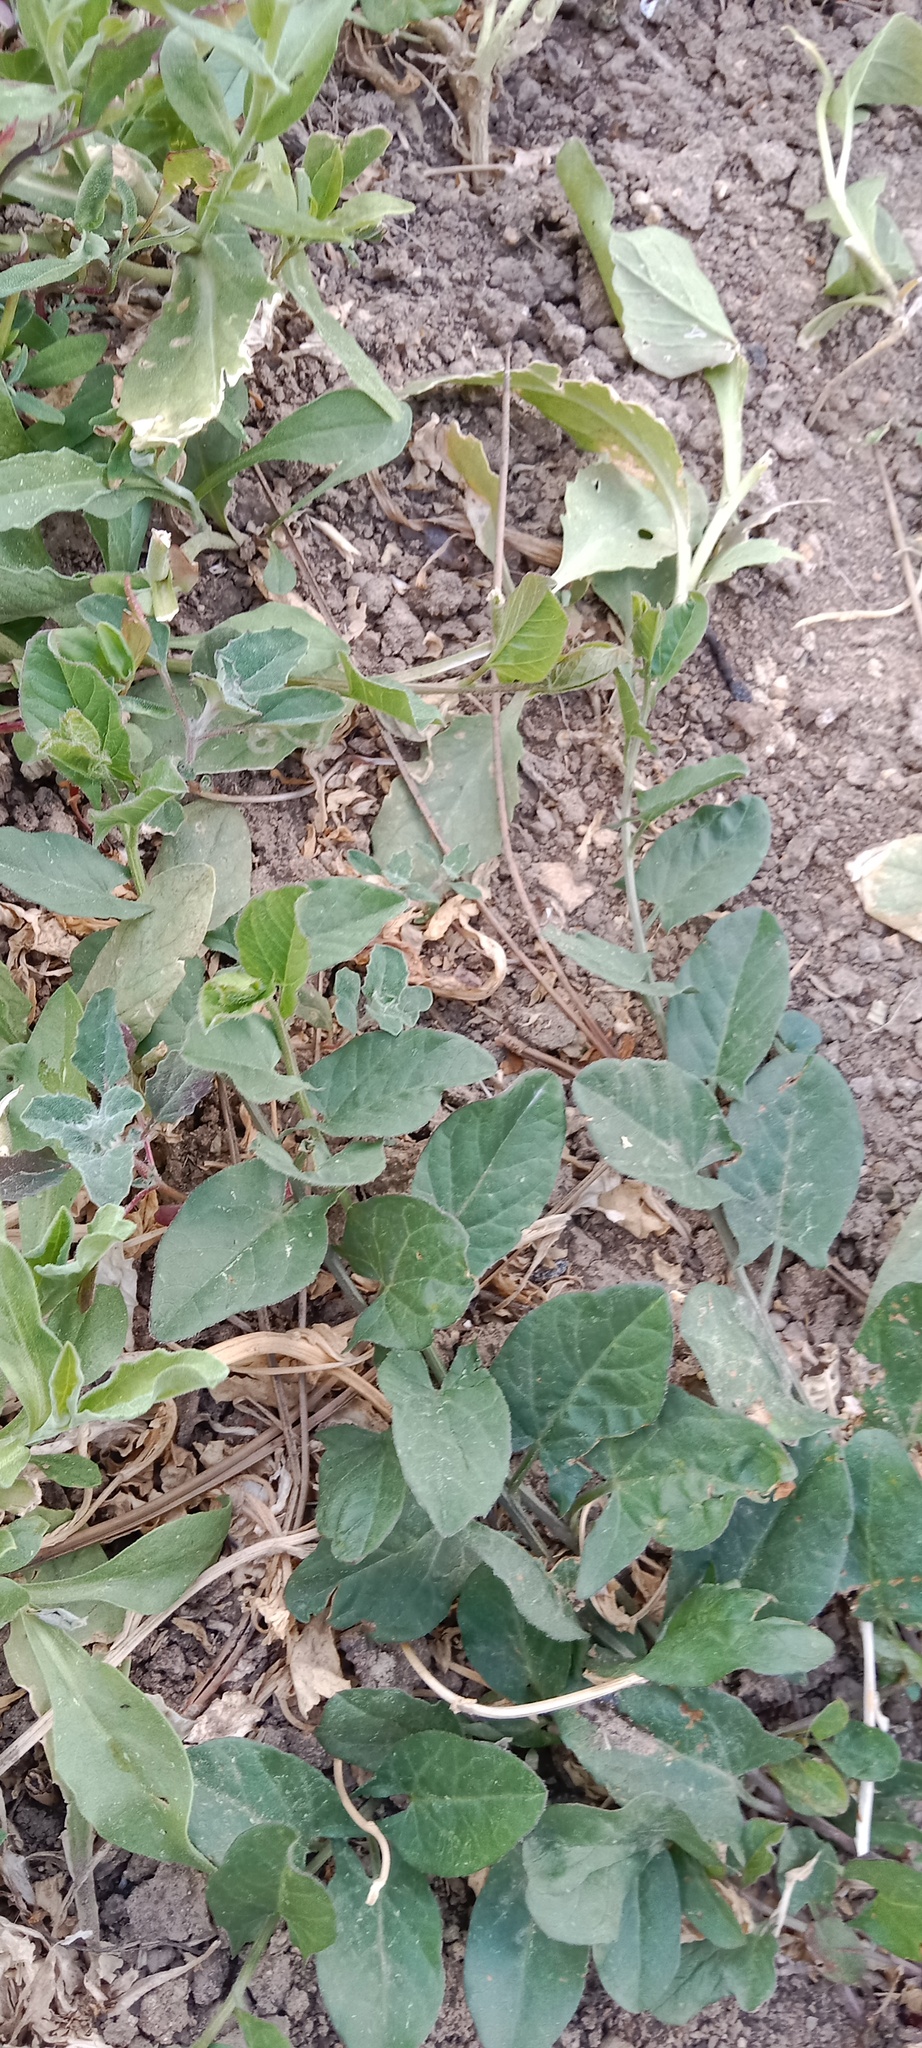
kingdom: Plantae
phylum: Tracheophyta
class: Magnoliopsida
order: Solanales
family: Convolvulaceae
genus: Convolvulus
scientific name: Convolvulus arvensis
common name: Field bindweed
